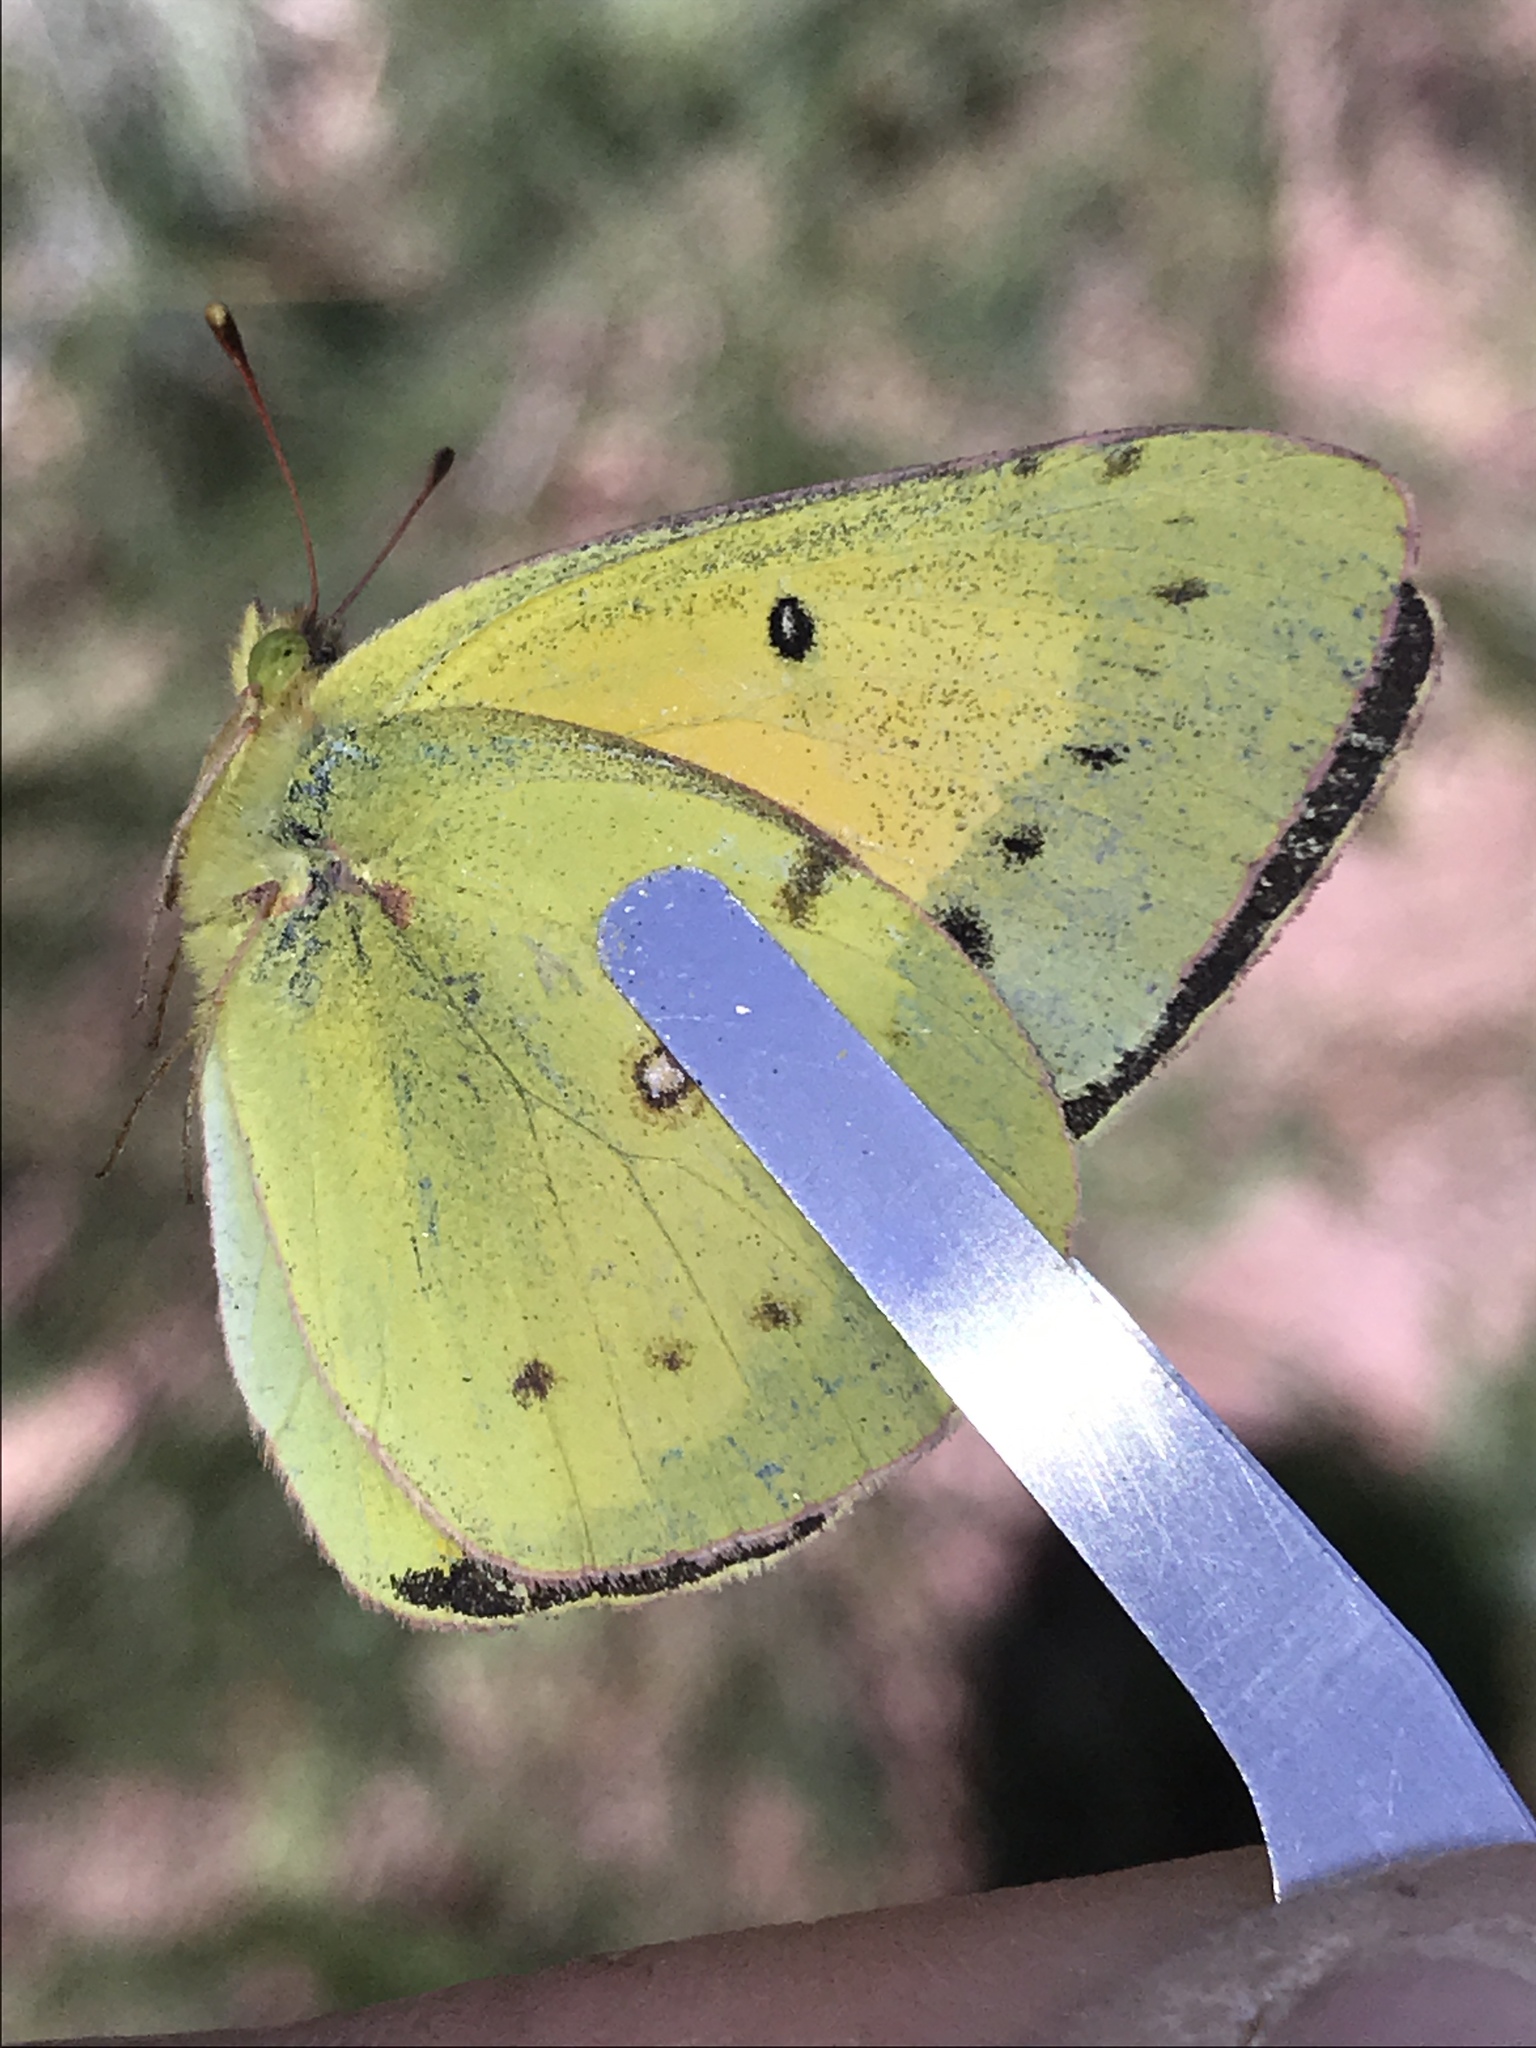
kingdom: Animalia
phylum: Arthropoda
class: Insecta
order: Lepidoptera
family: Pieridae
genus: Colias
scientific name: Colias eurytheme
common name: Alfalfa butterfly
